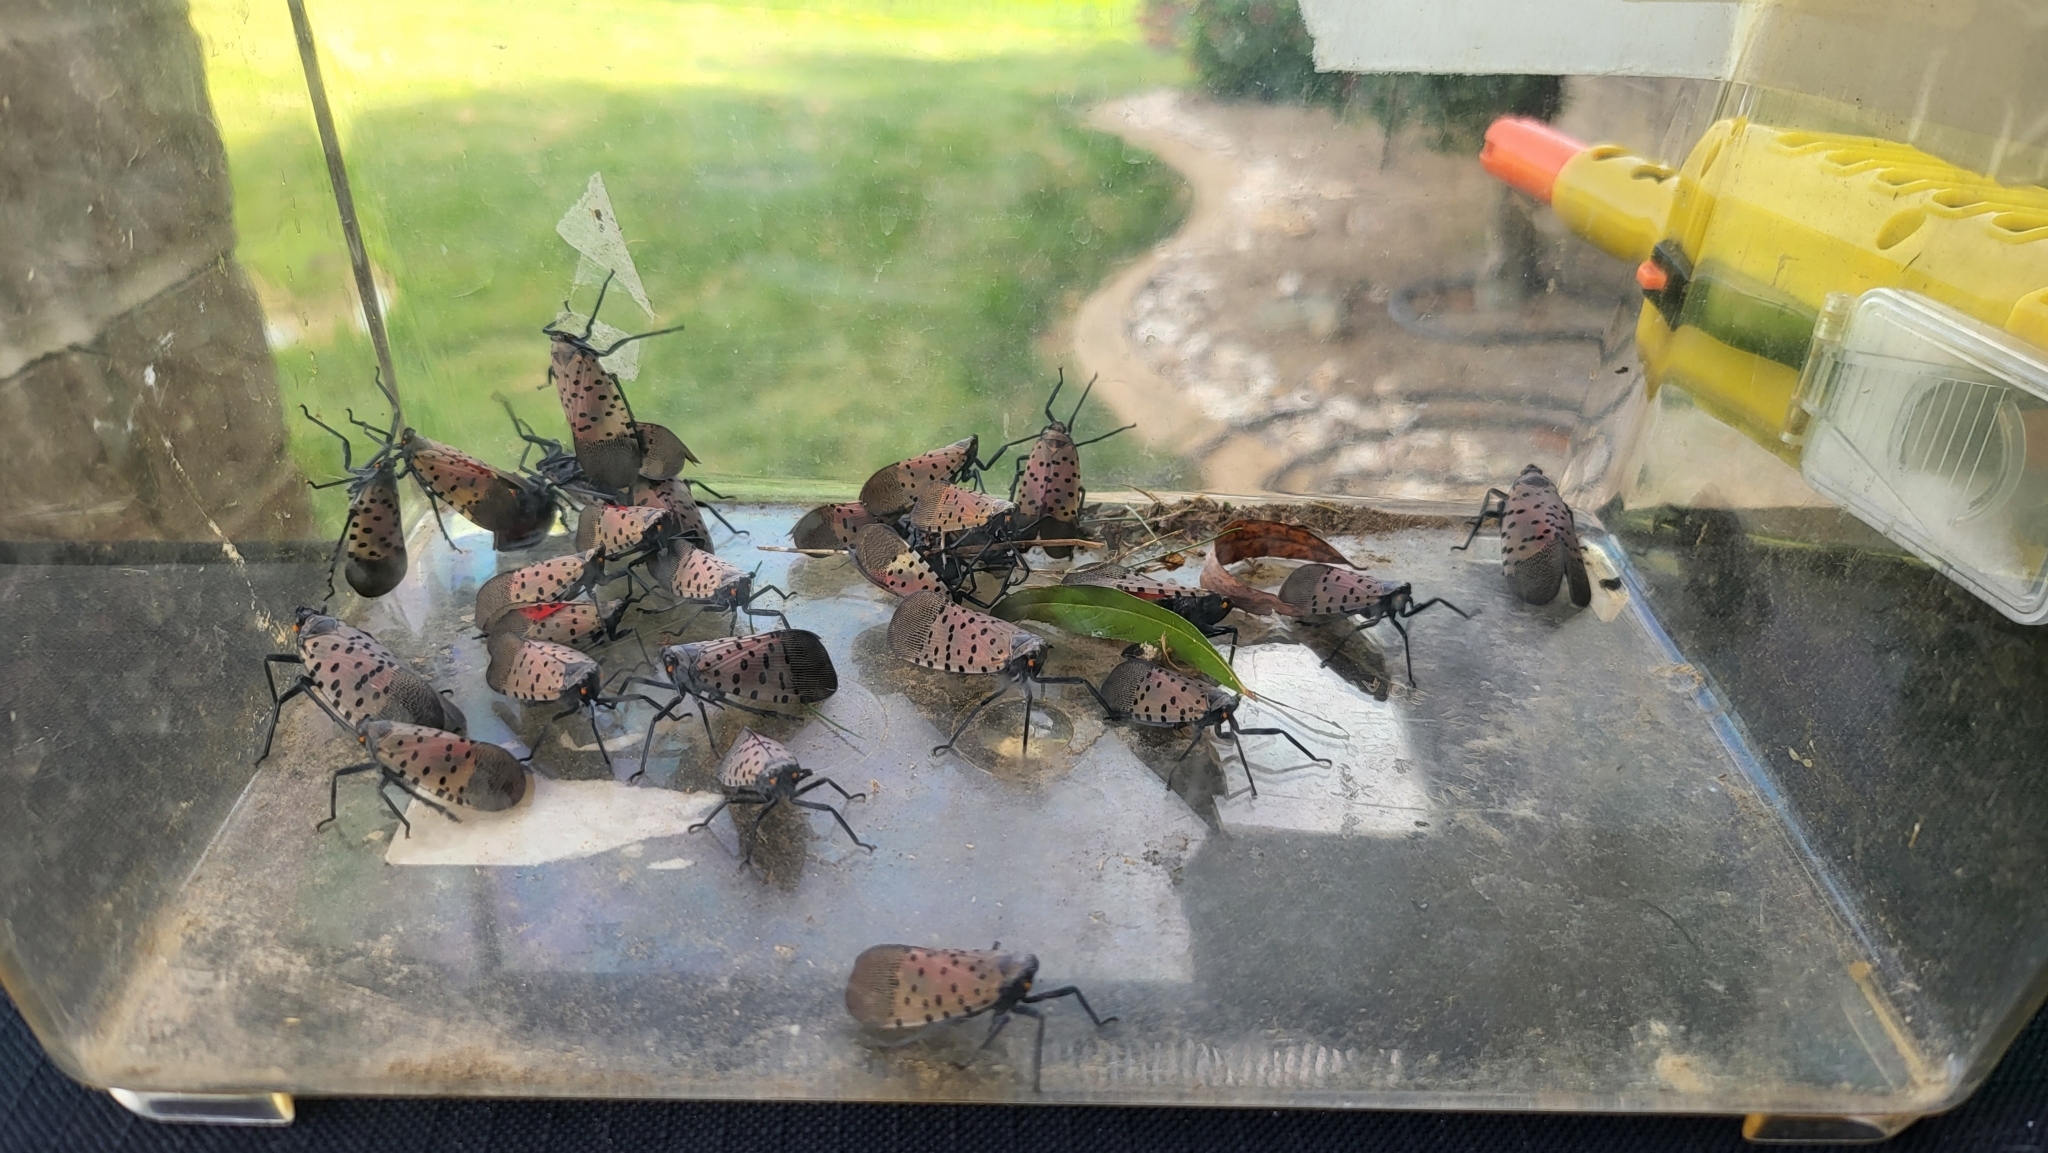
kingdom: Animalia
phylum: Arthropoda
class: Insecta
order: Hemiptera
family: Fulgoridae
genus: Lycorma
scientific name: Lycorma delicatula
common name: Spotted lanternfly
